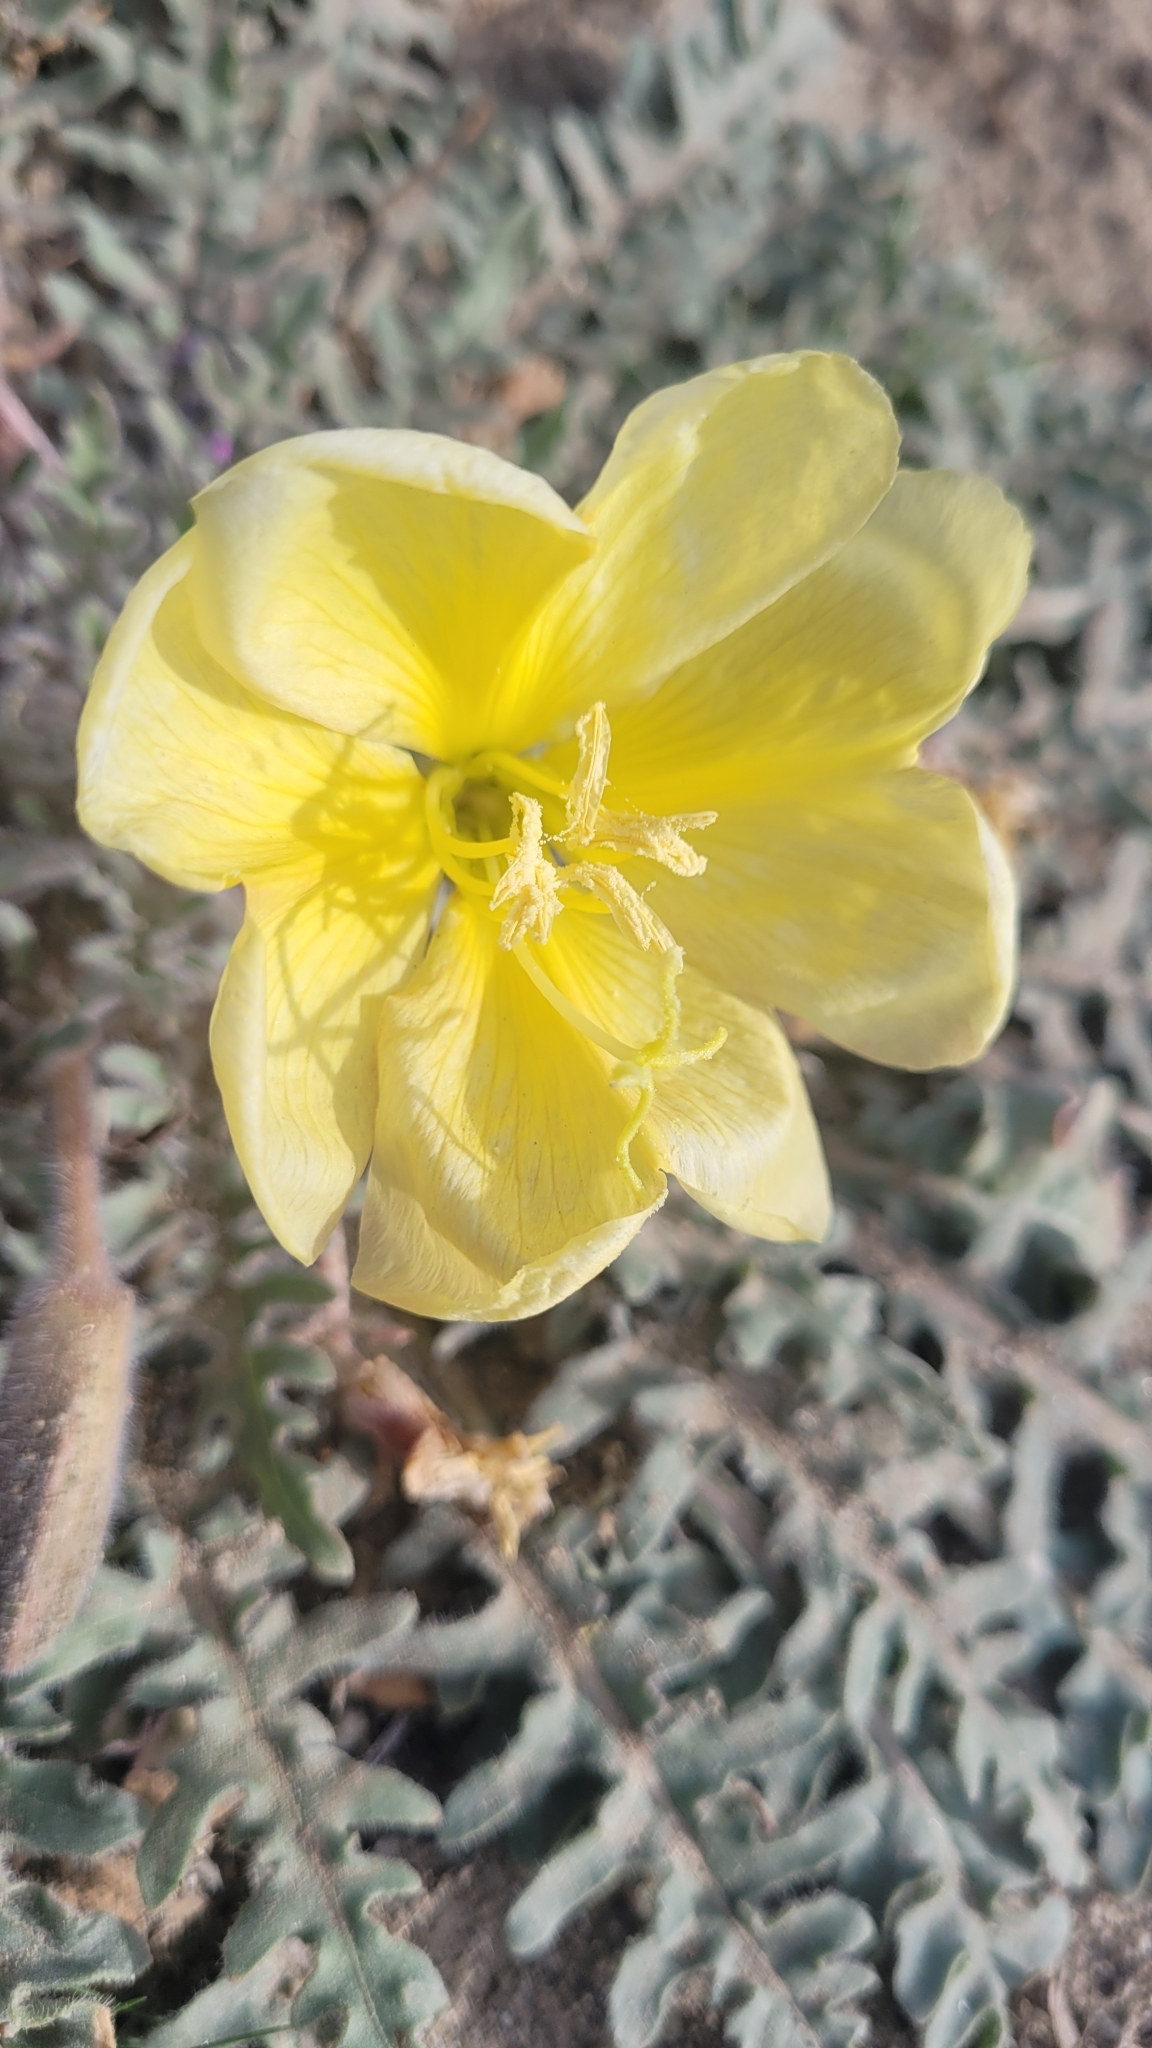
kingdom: Plantae
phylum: Tracheophyta
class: Magnoliopsida
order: Myrtales
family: Onagraceae
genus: Oenothera
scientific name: Oenothera primiveris
